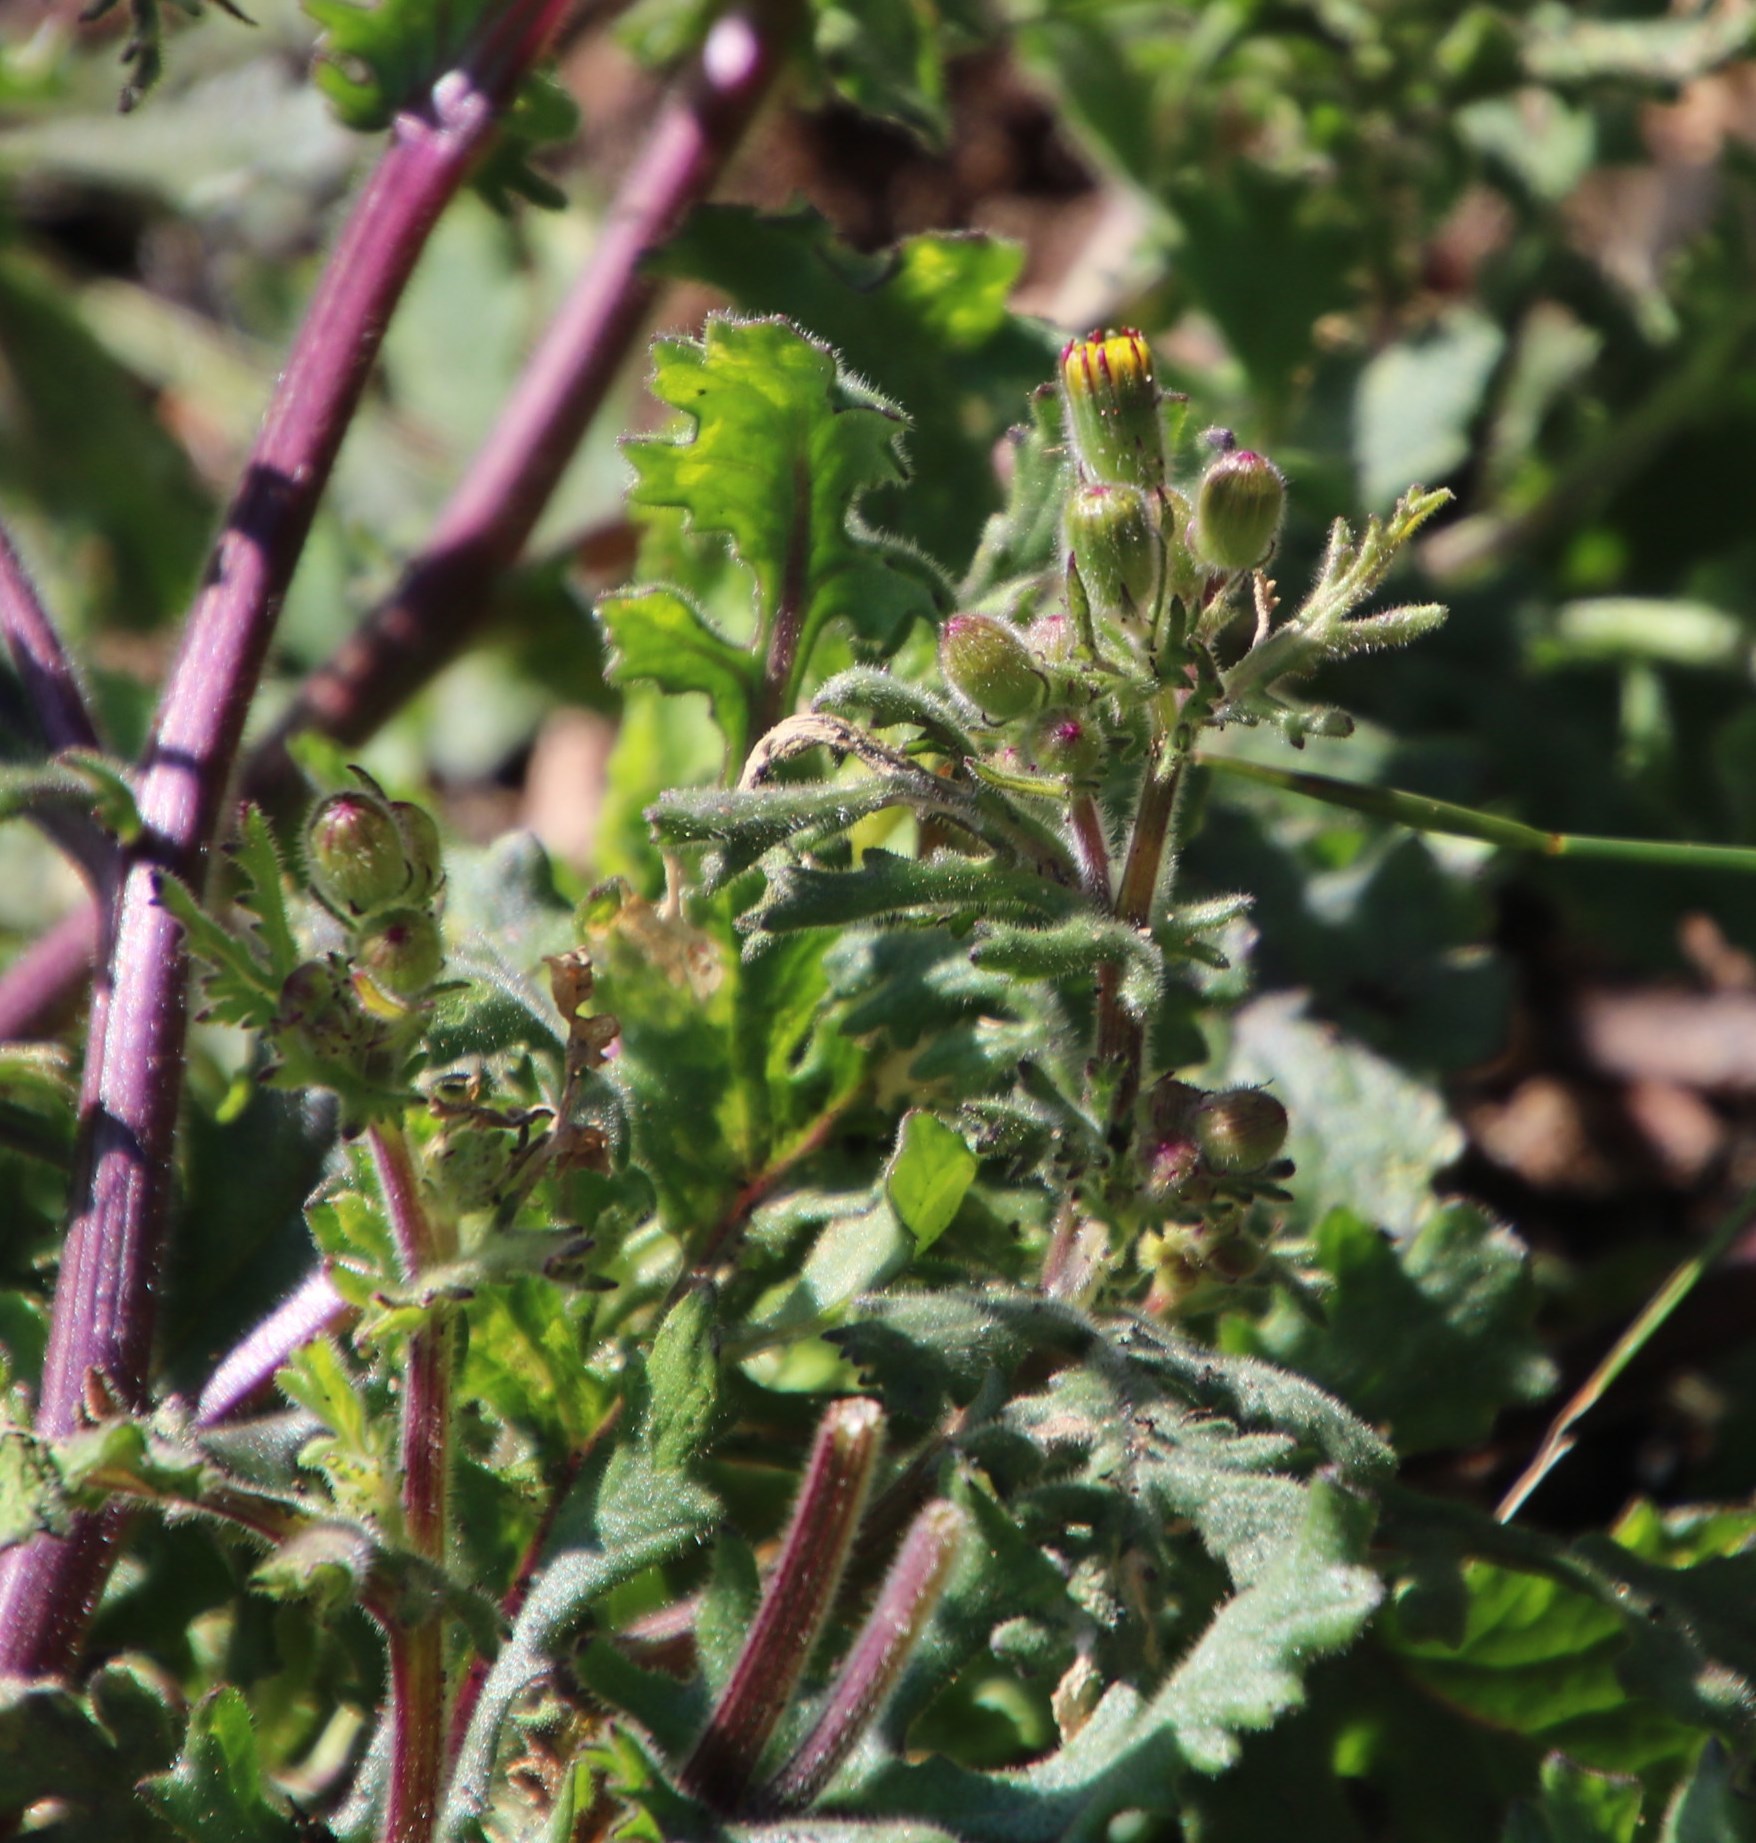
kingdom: Plantae
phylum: Tracheophyta
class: Magnoliopsida
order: Asterales
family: Asteraceae
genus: Senecio
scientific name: Senecio arenarius
